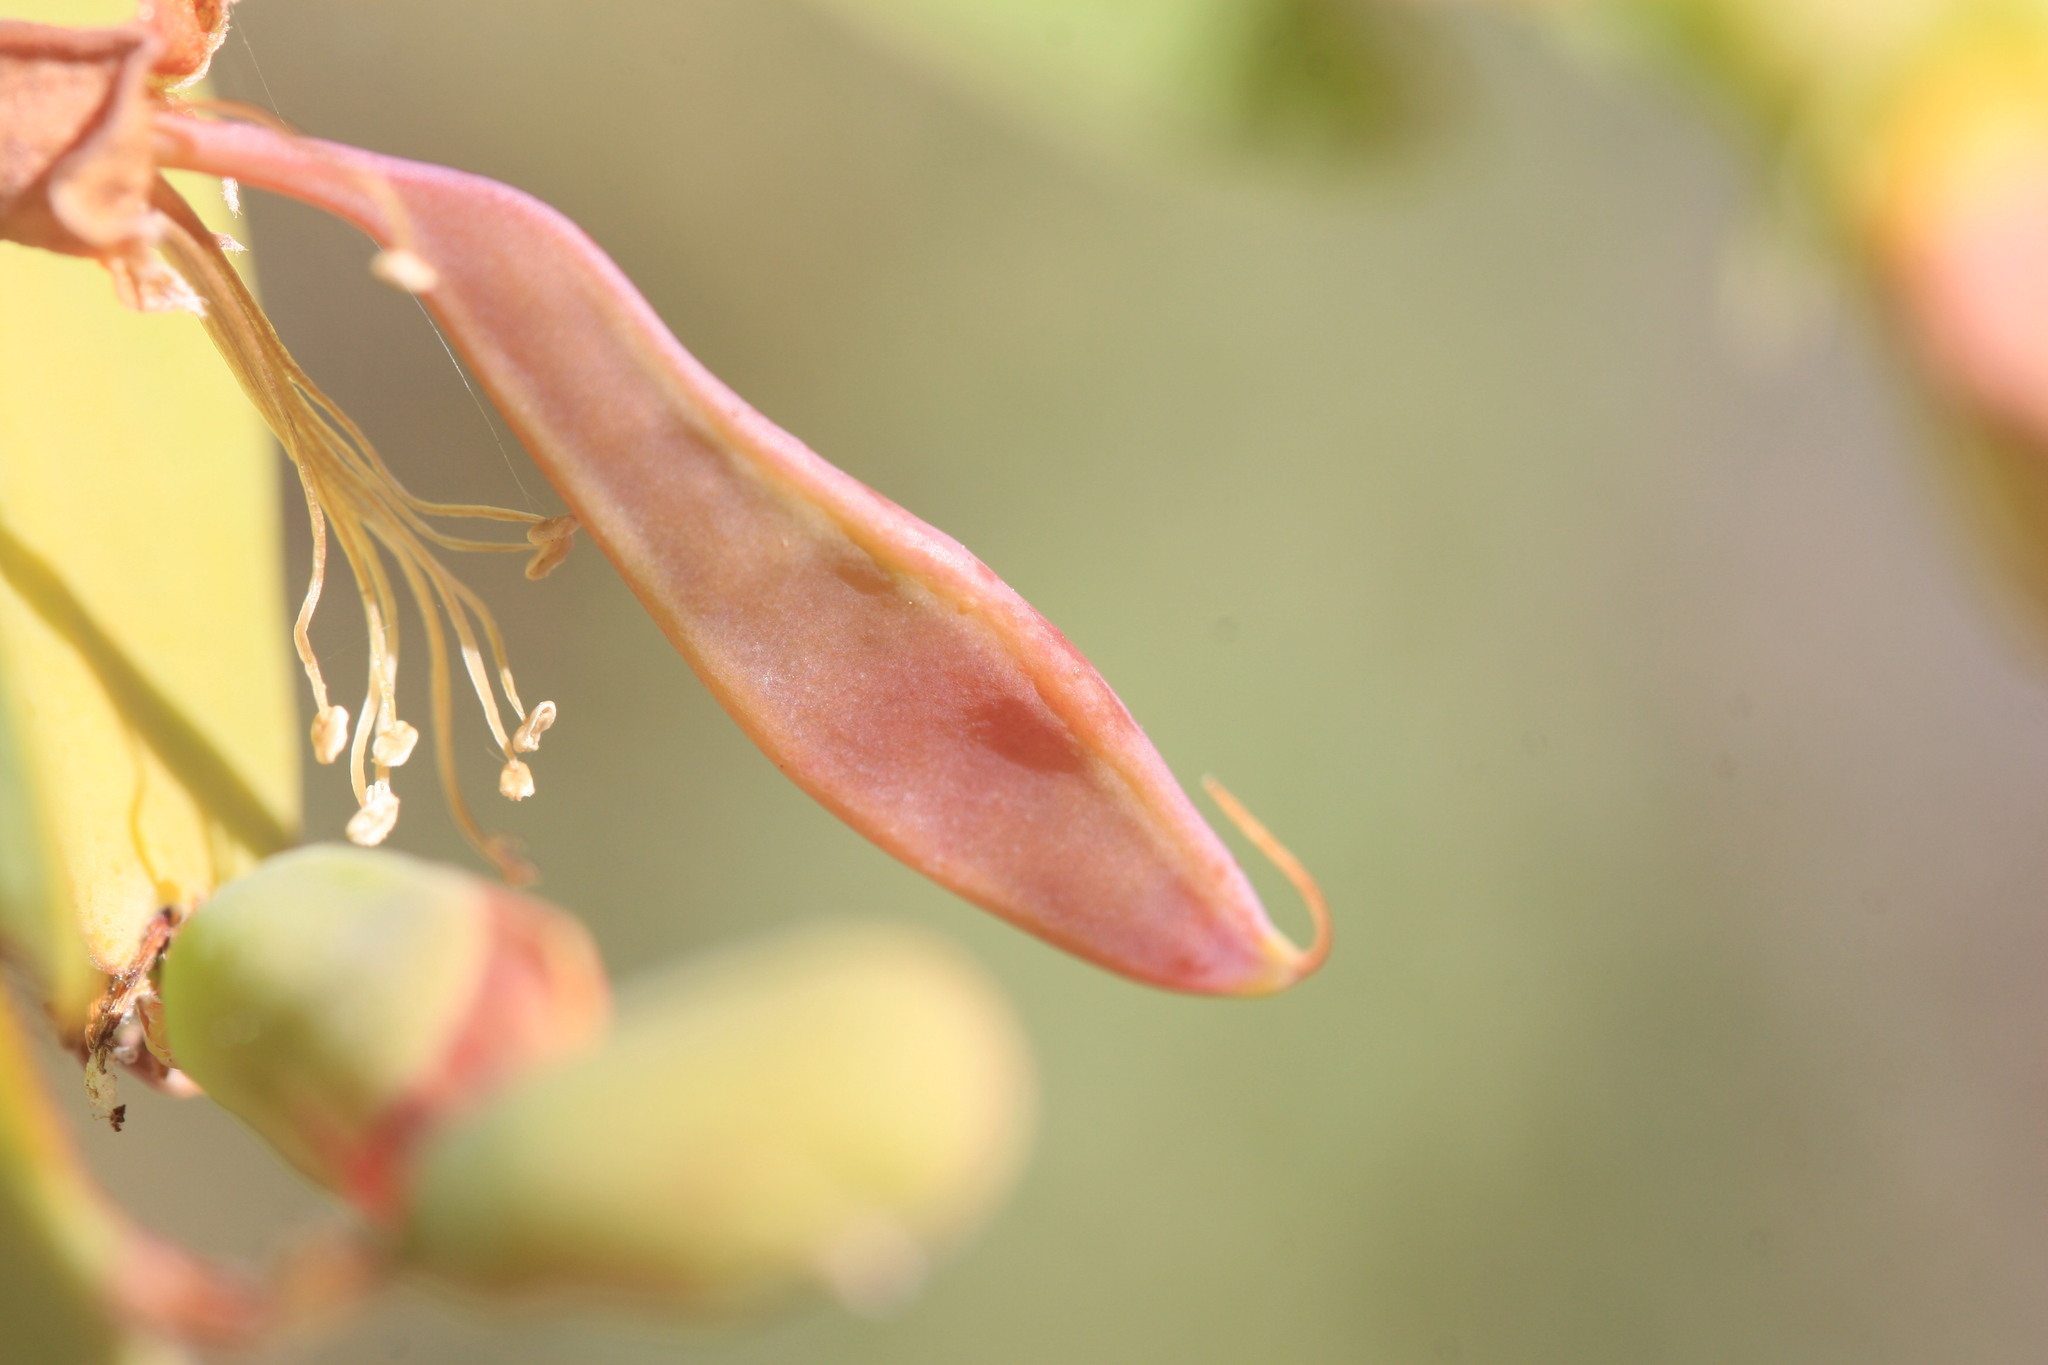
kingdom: Plantae
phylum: Tracheophyta
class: Magnoliopsida
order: Fabales
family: Fabaceae
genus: Bossiaea
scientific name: Bossiaea bossiaeoides
